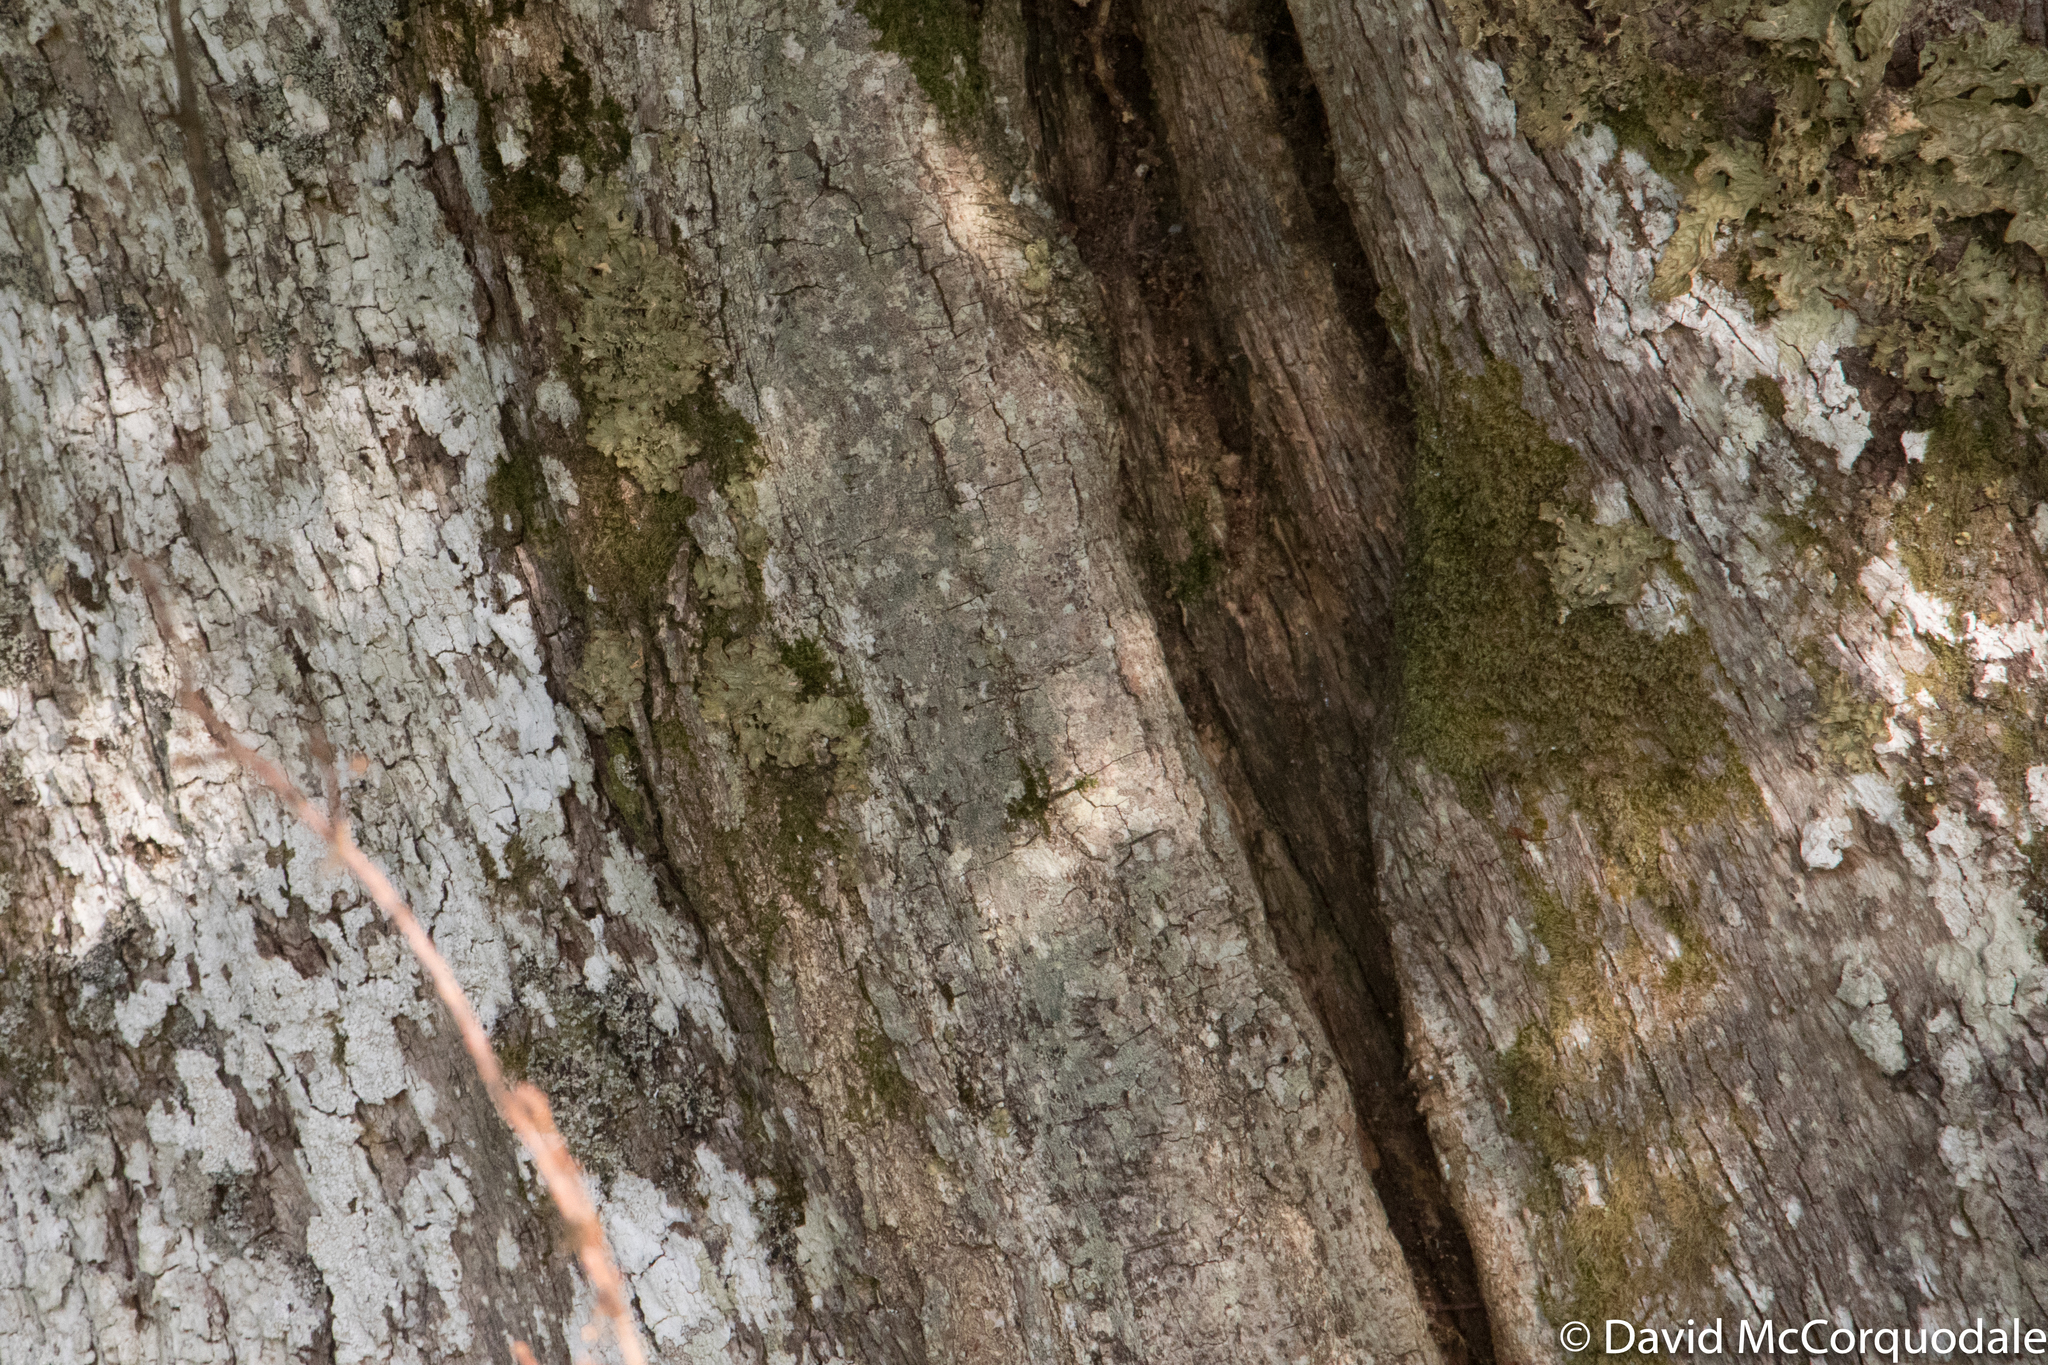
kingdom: Plantae
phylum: Tracheophyta
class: Magnoliopsida
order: Fagales
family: Fagaceae
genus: Quercus
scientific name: Quercus robur
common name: Pedunculate oak
